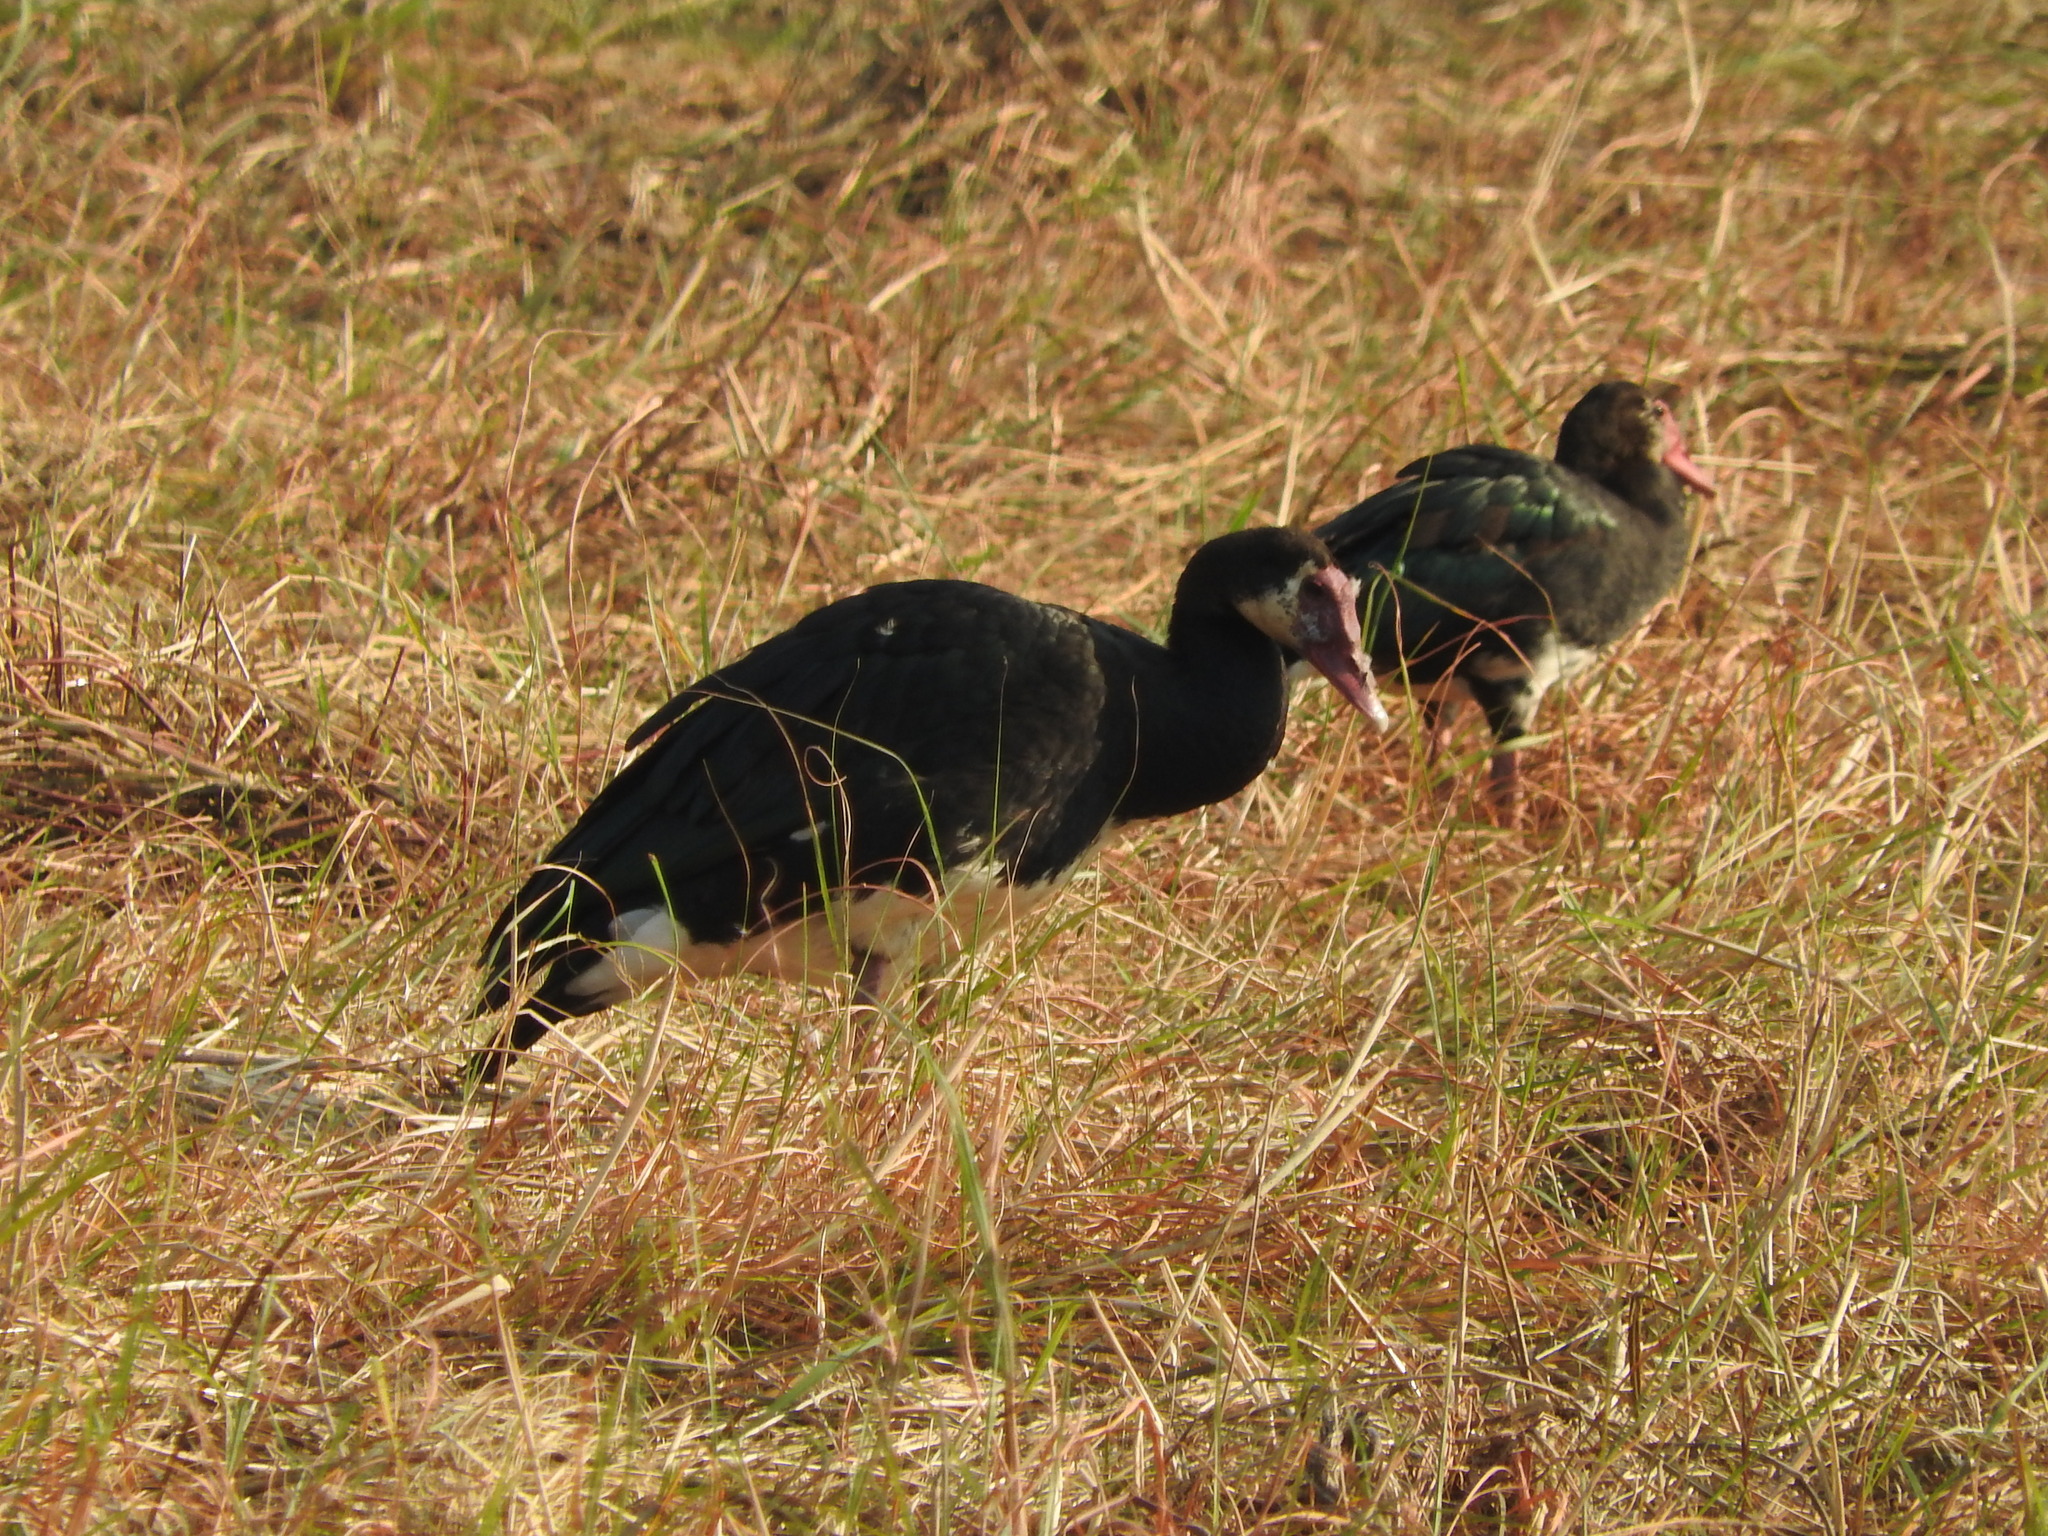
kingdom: Animalia
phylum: Chordata
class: Aves
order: Anseriformes
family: Anatidae
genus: Plectropterus
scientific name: Plectropterus gambensis
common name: Spur-winged goose
